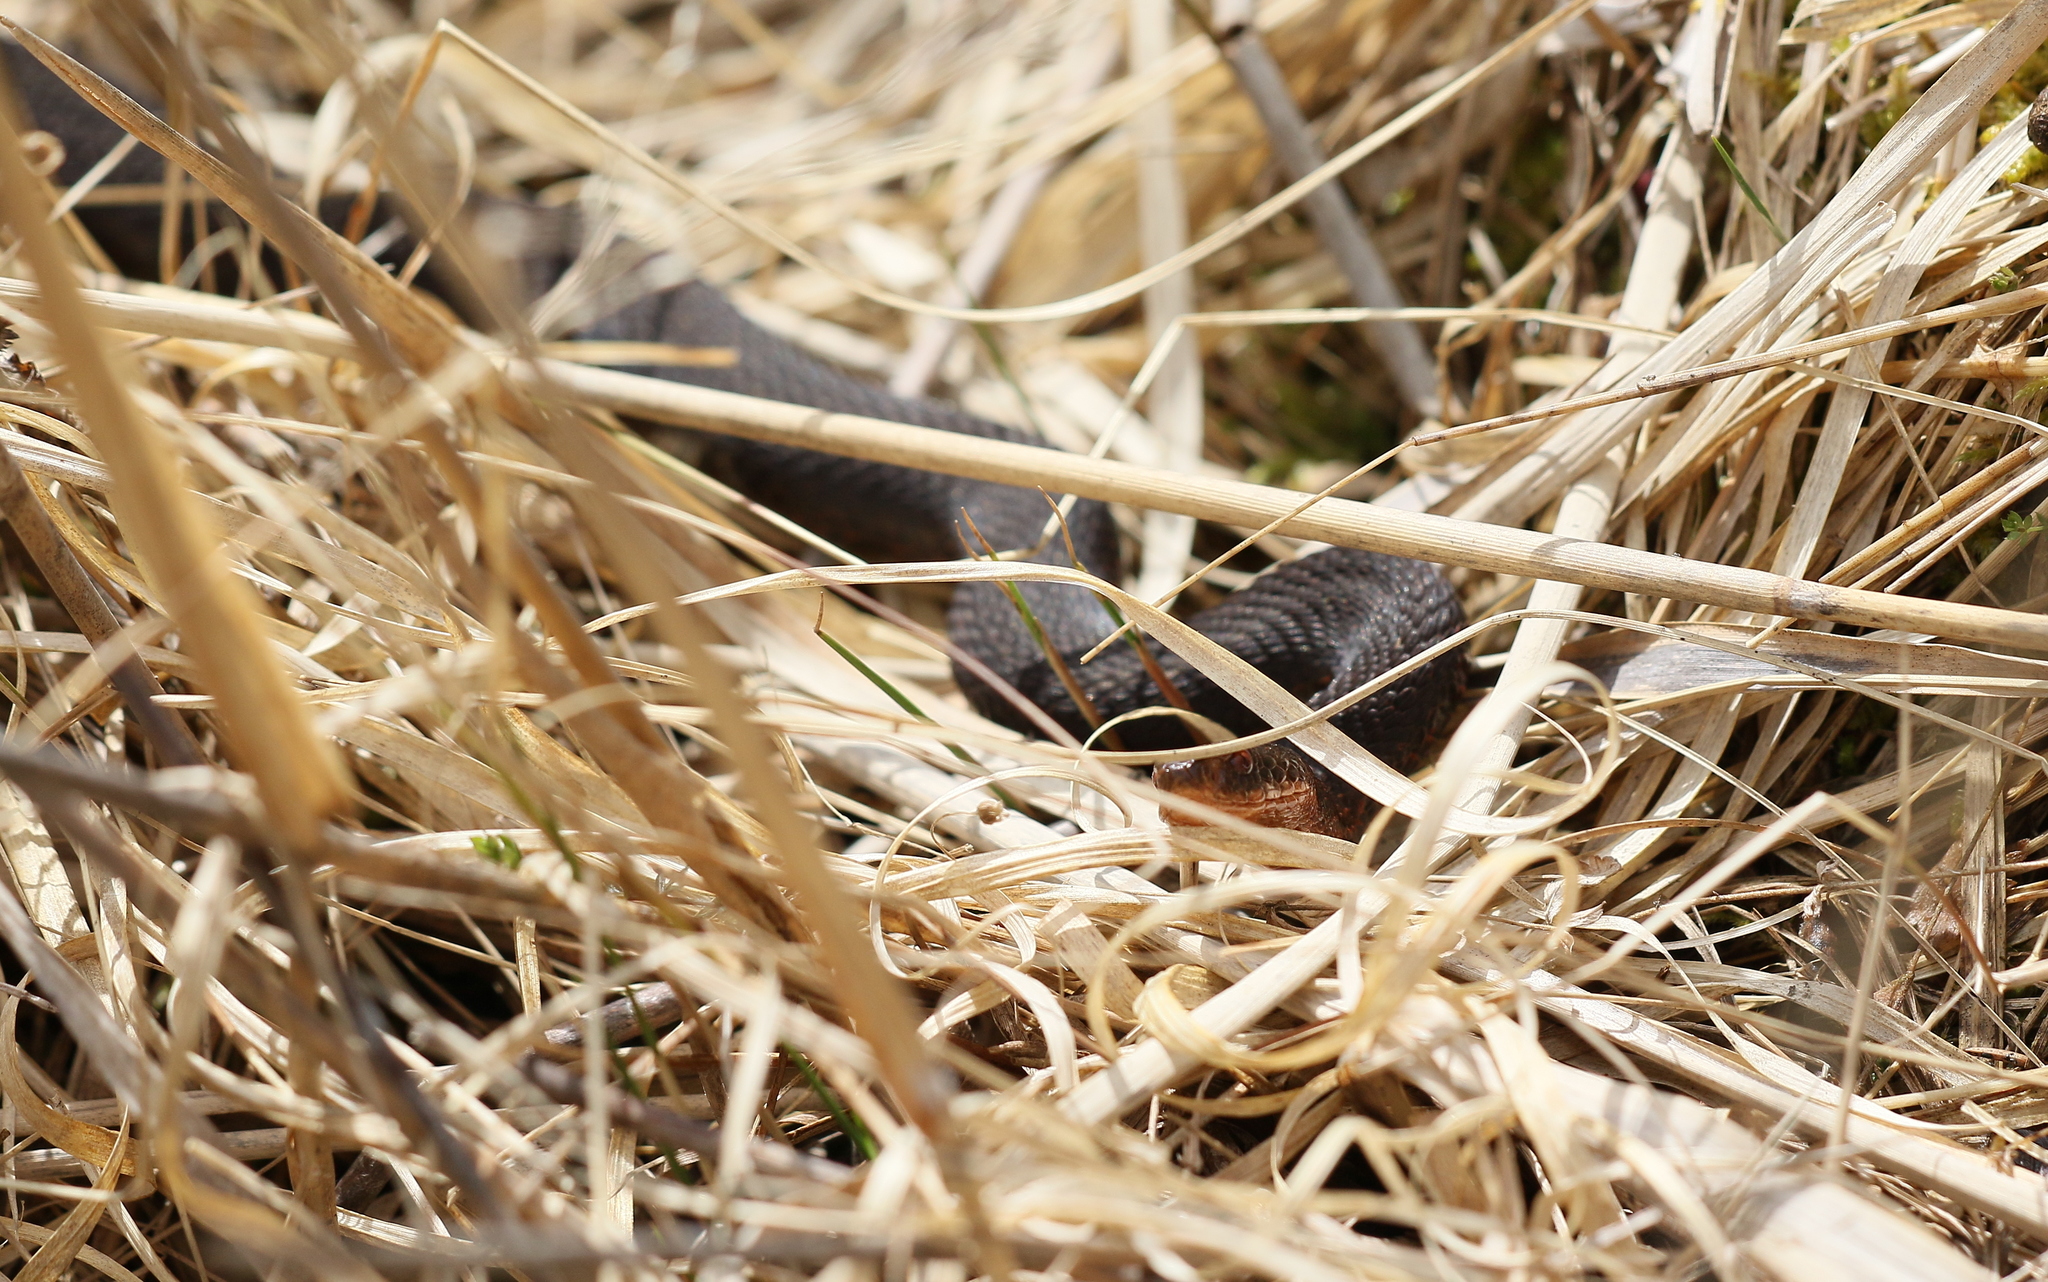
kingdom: Animalia
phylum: Chordata
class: Squamata
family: Viperidae
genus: Vipera
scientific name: Vipera berus
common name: Adder
